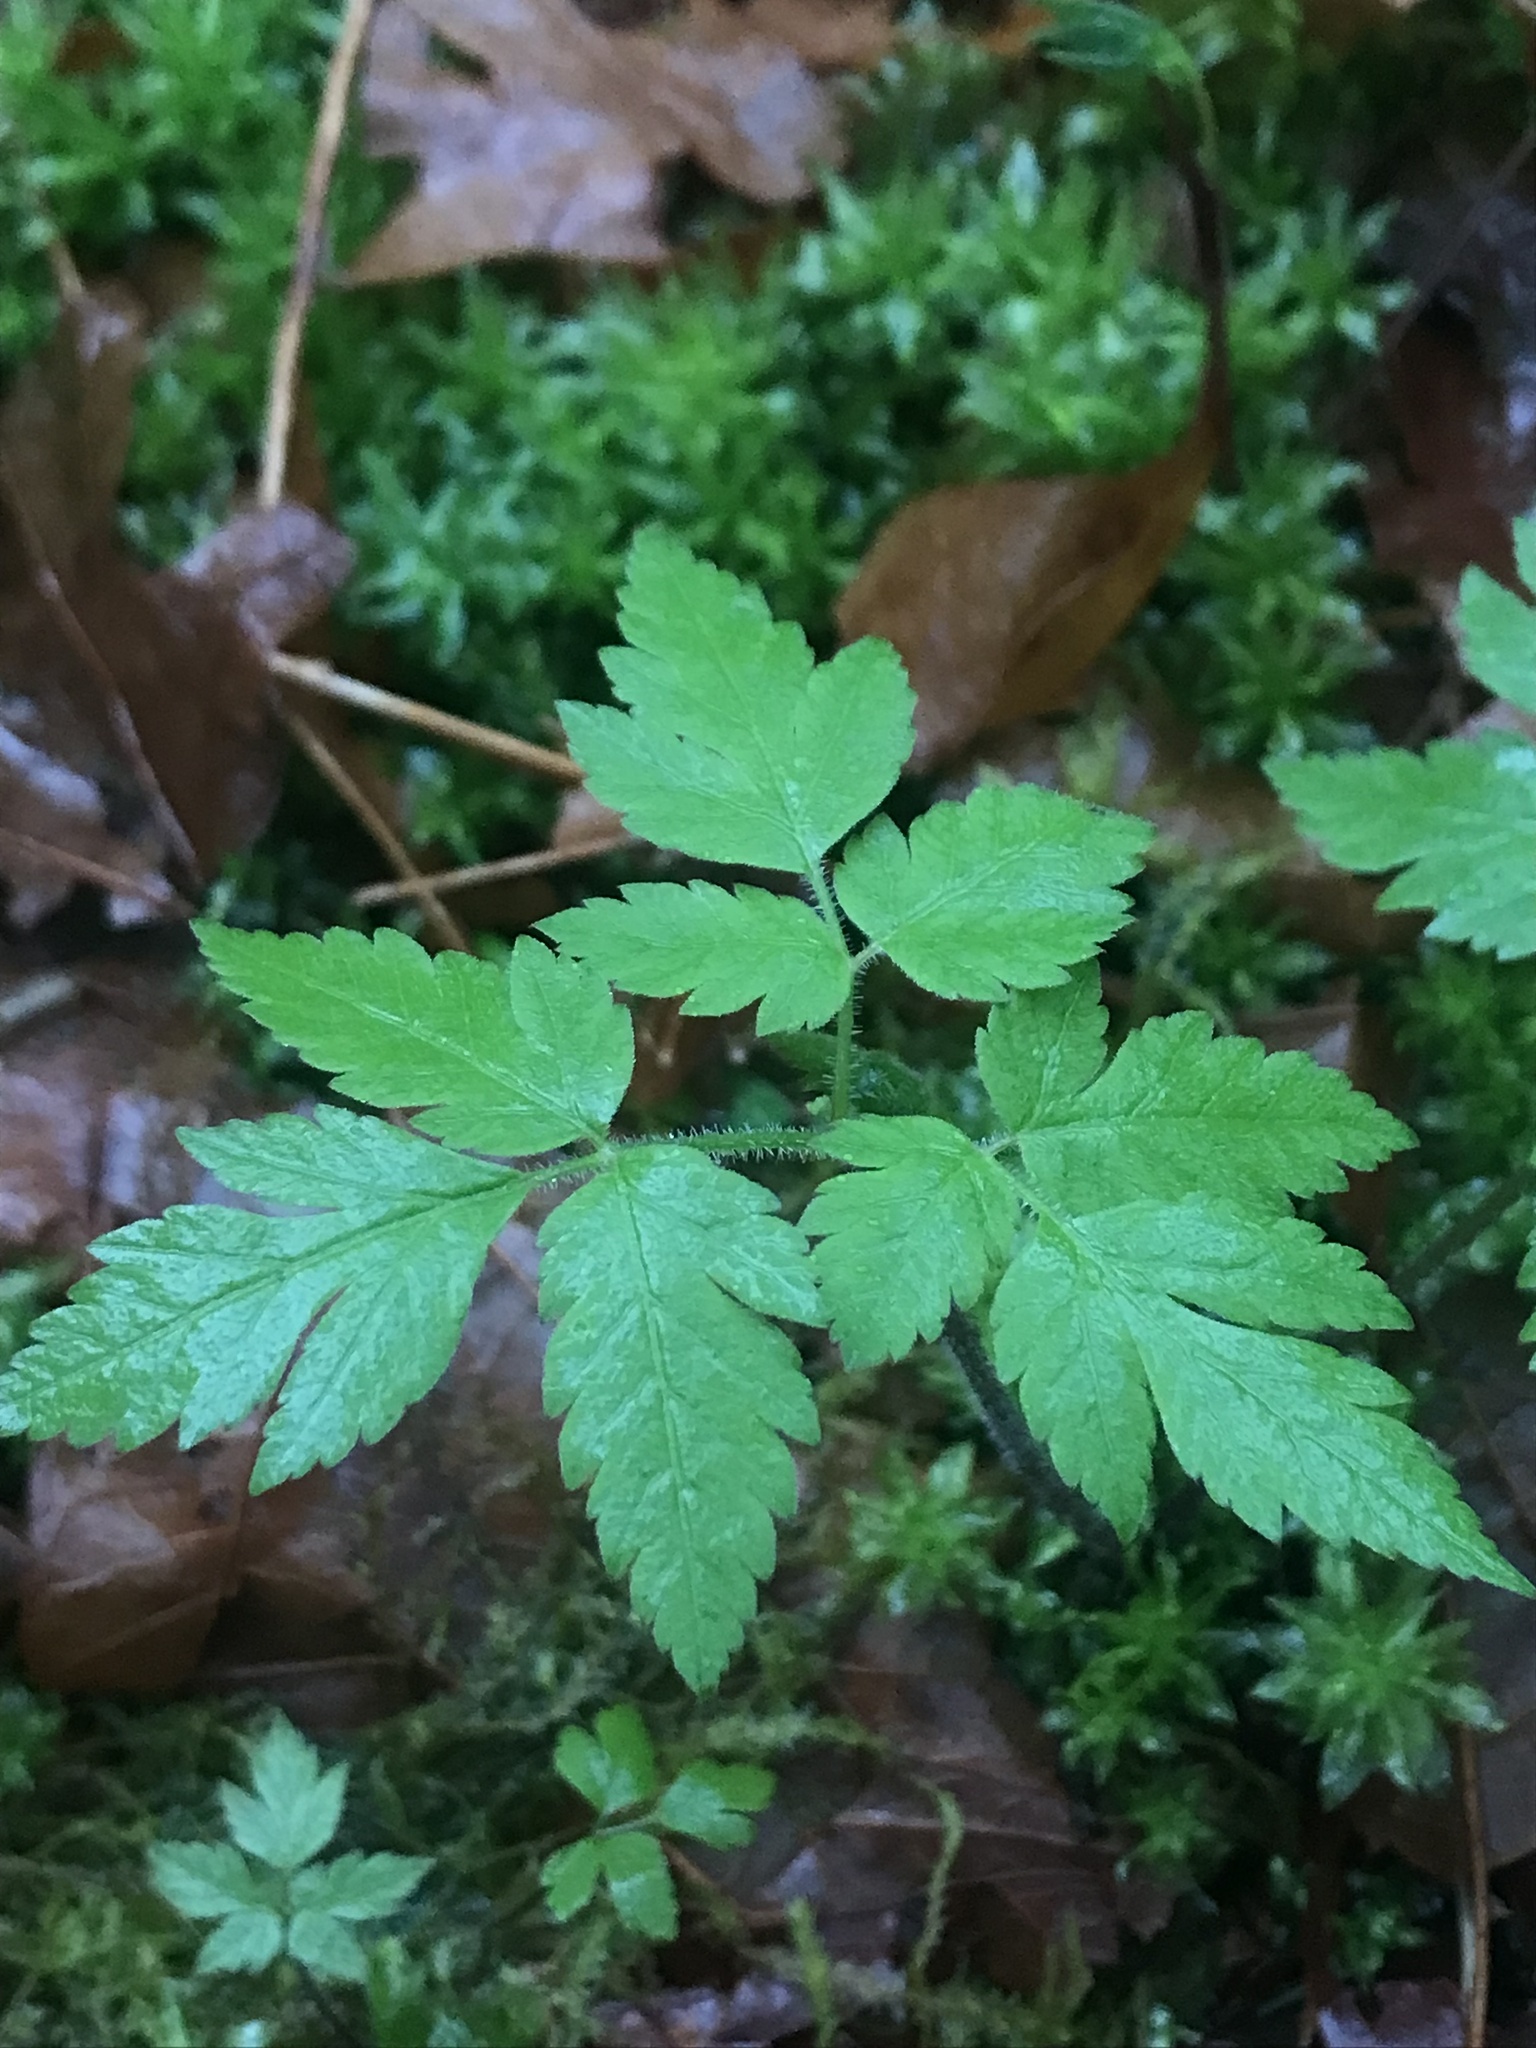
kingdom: Plantae
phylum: Tracheophyta
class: Magnoliopsida
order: Apiales
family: Apiaceae
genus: Osmorhiza
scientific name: Osmorhiza berteroi
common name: Mountain sweet cicely
